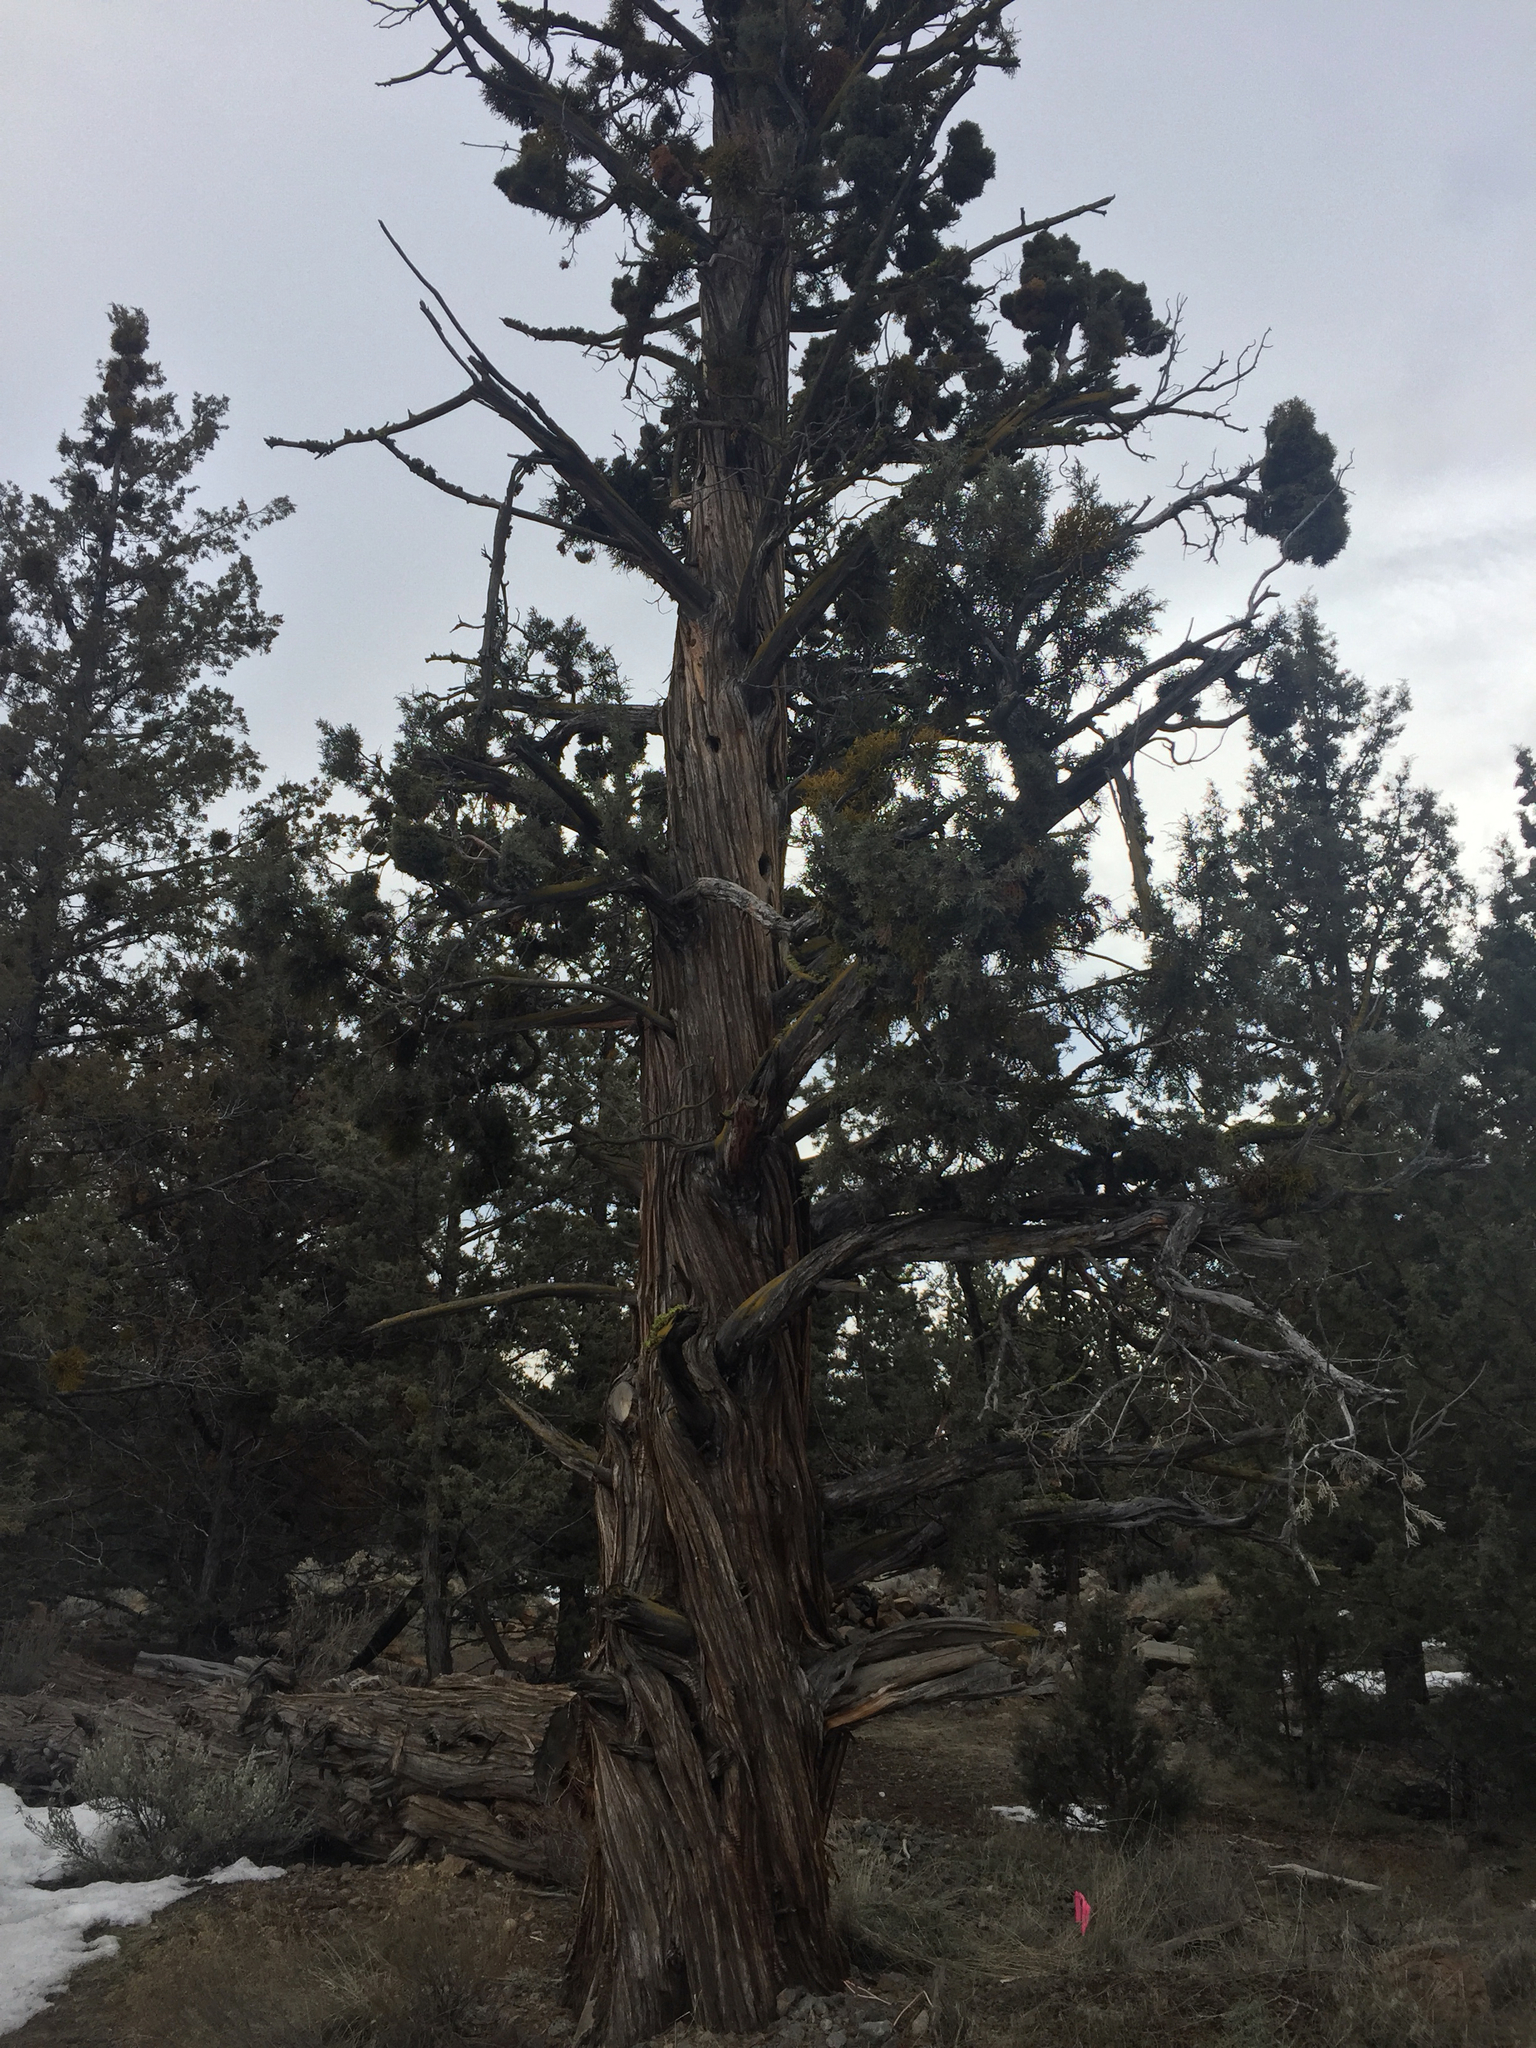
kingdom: Plantae
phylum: Tracheophyta
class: Pinopsida
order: Pinales
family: Cupressaceae
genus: Juniperus
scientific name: Juniperus occidentalis
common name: Western juniper
